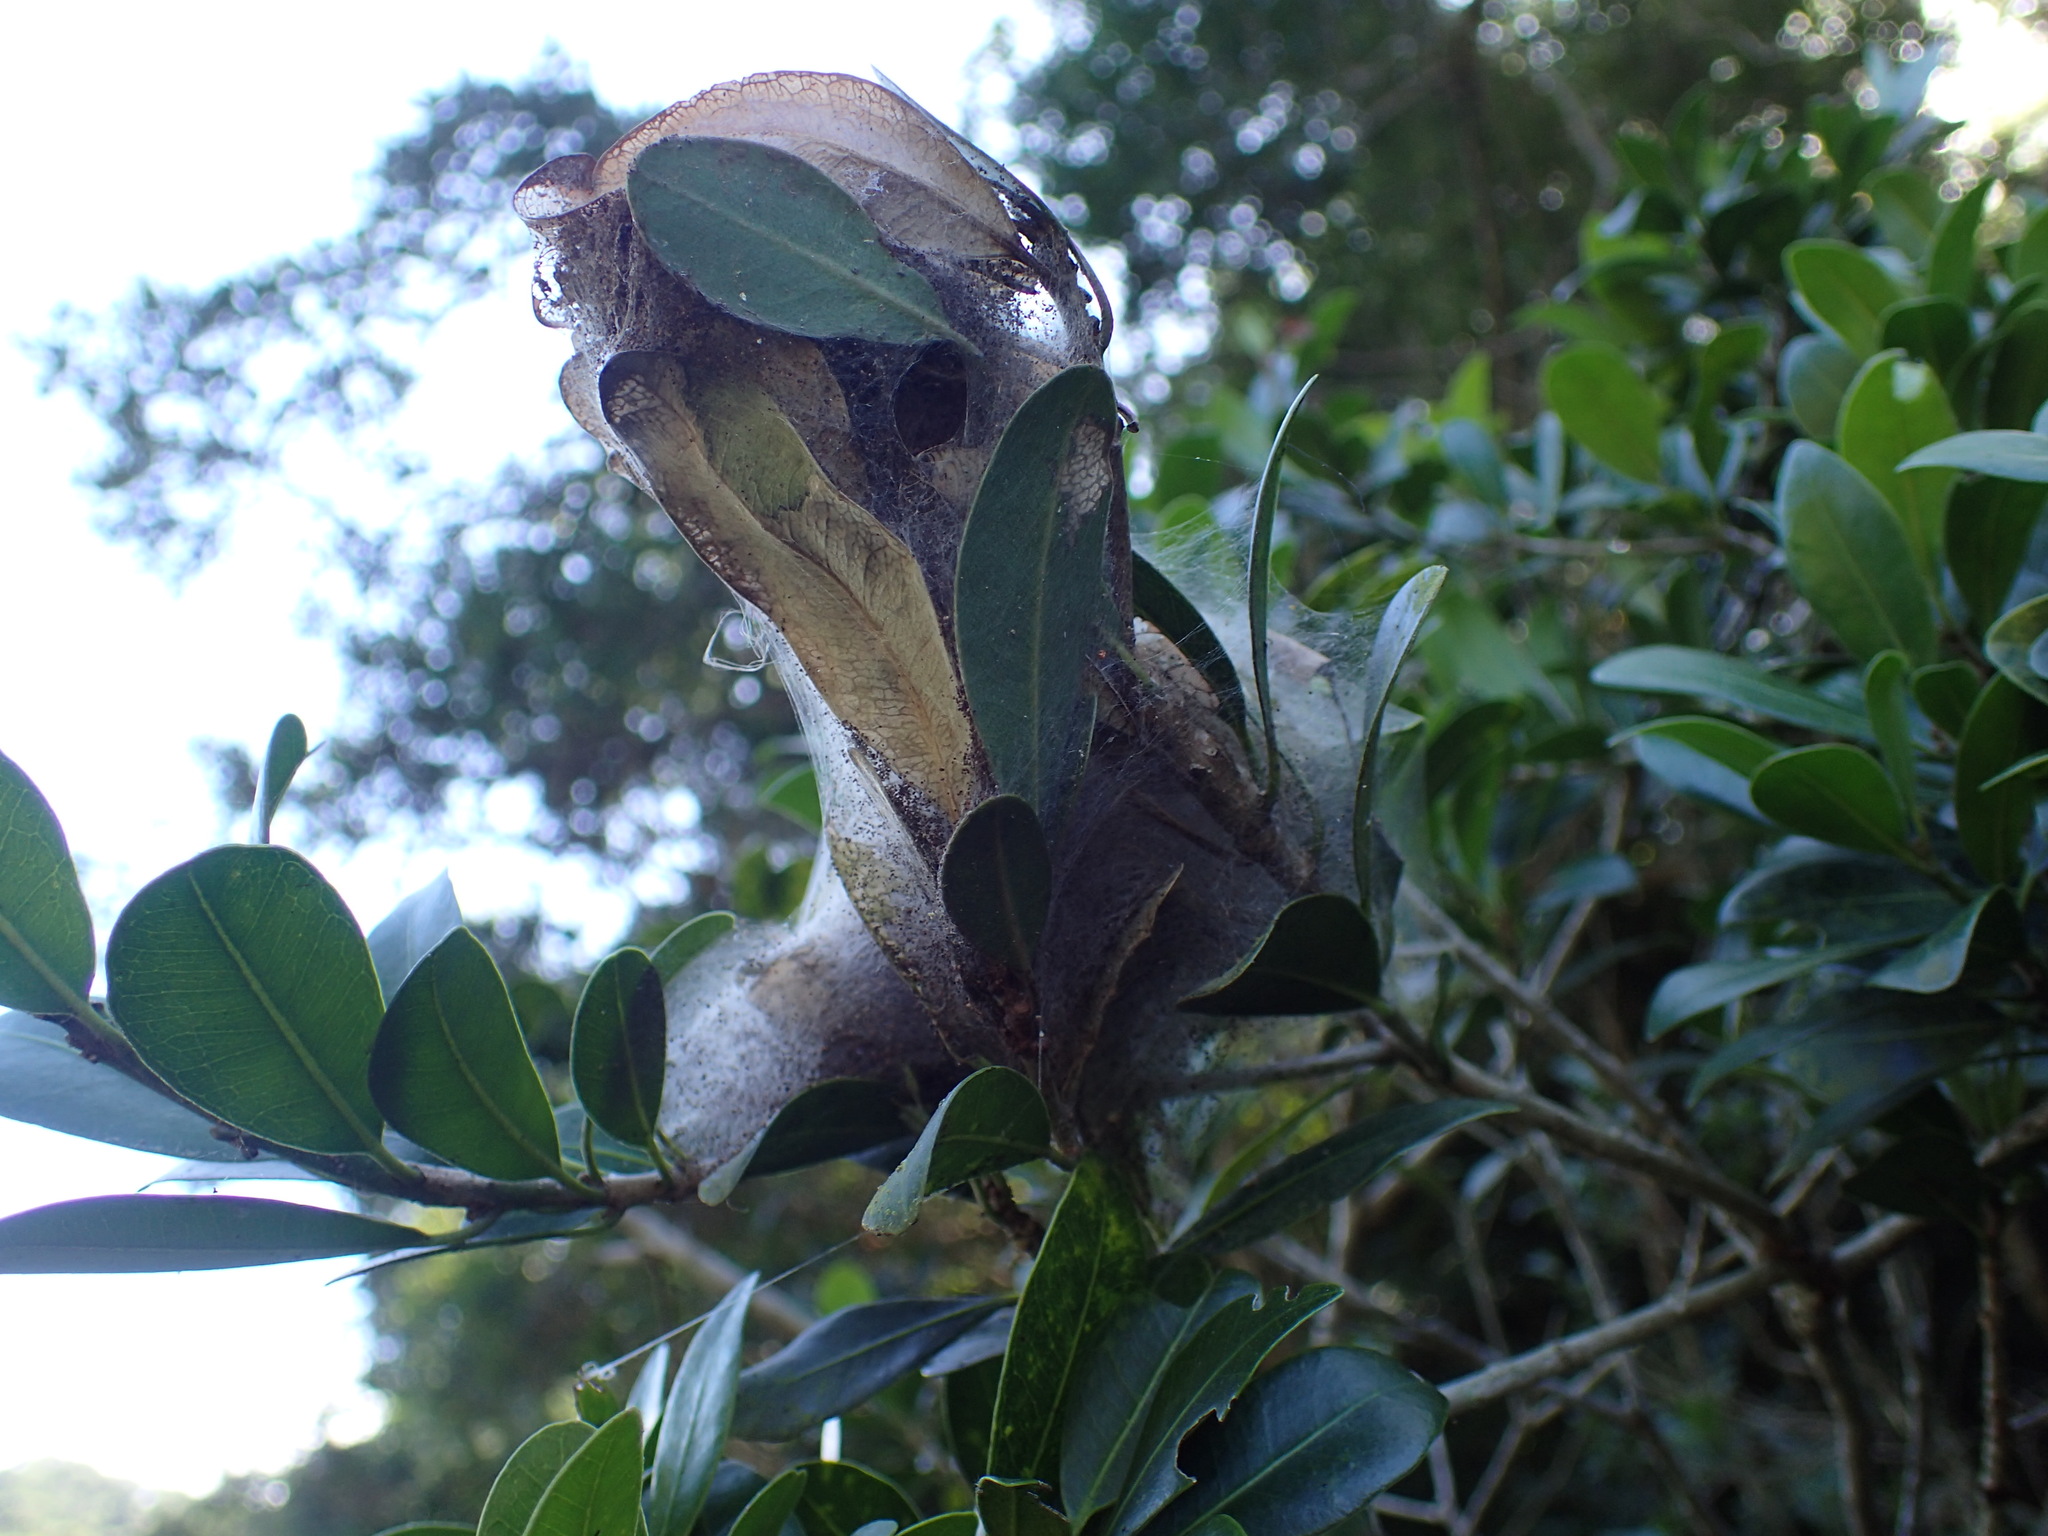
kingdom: Animalia
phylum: Arthropoda
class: Insecta
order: Lepidoptera
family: Pyralidae
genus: Zitha
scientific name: Zitha carnicolor
